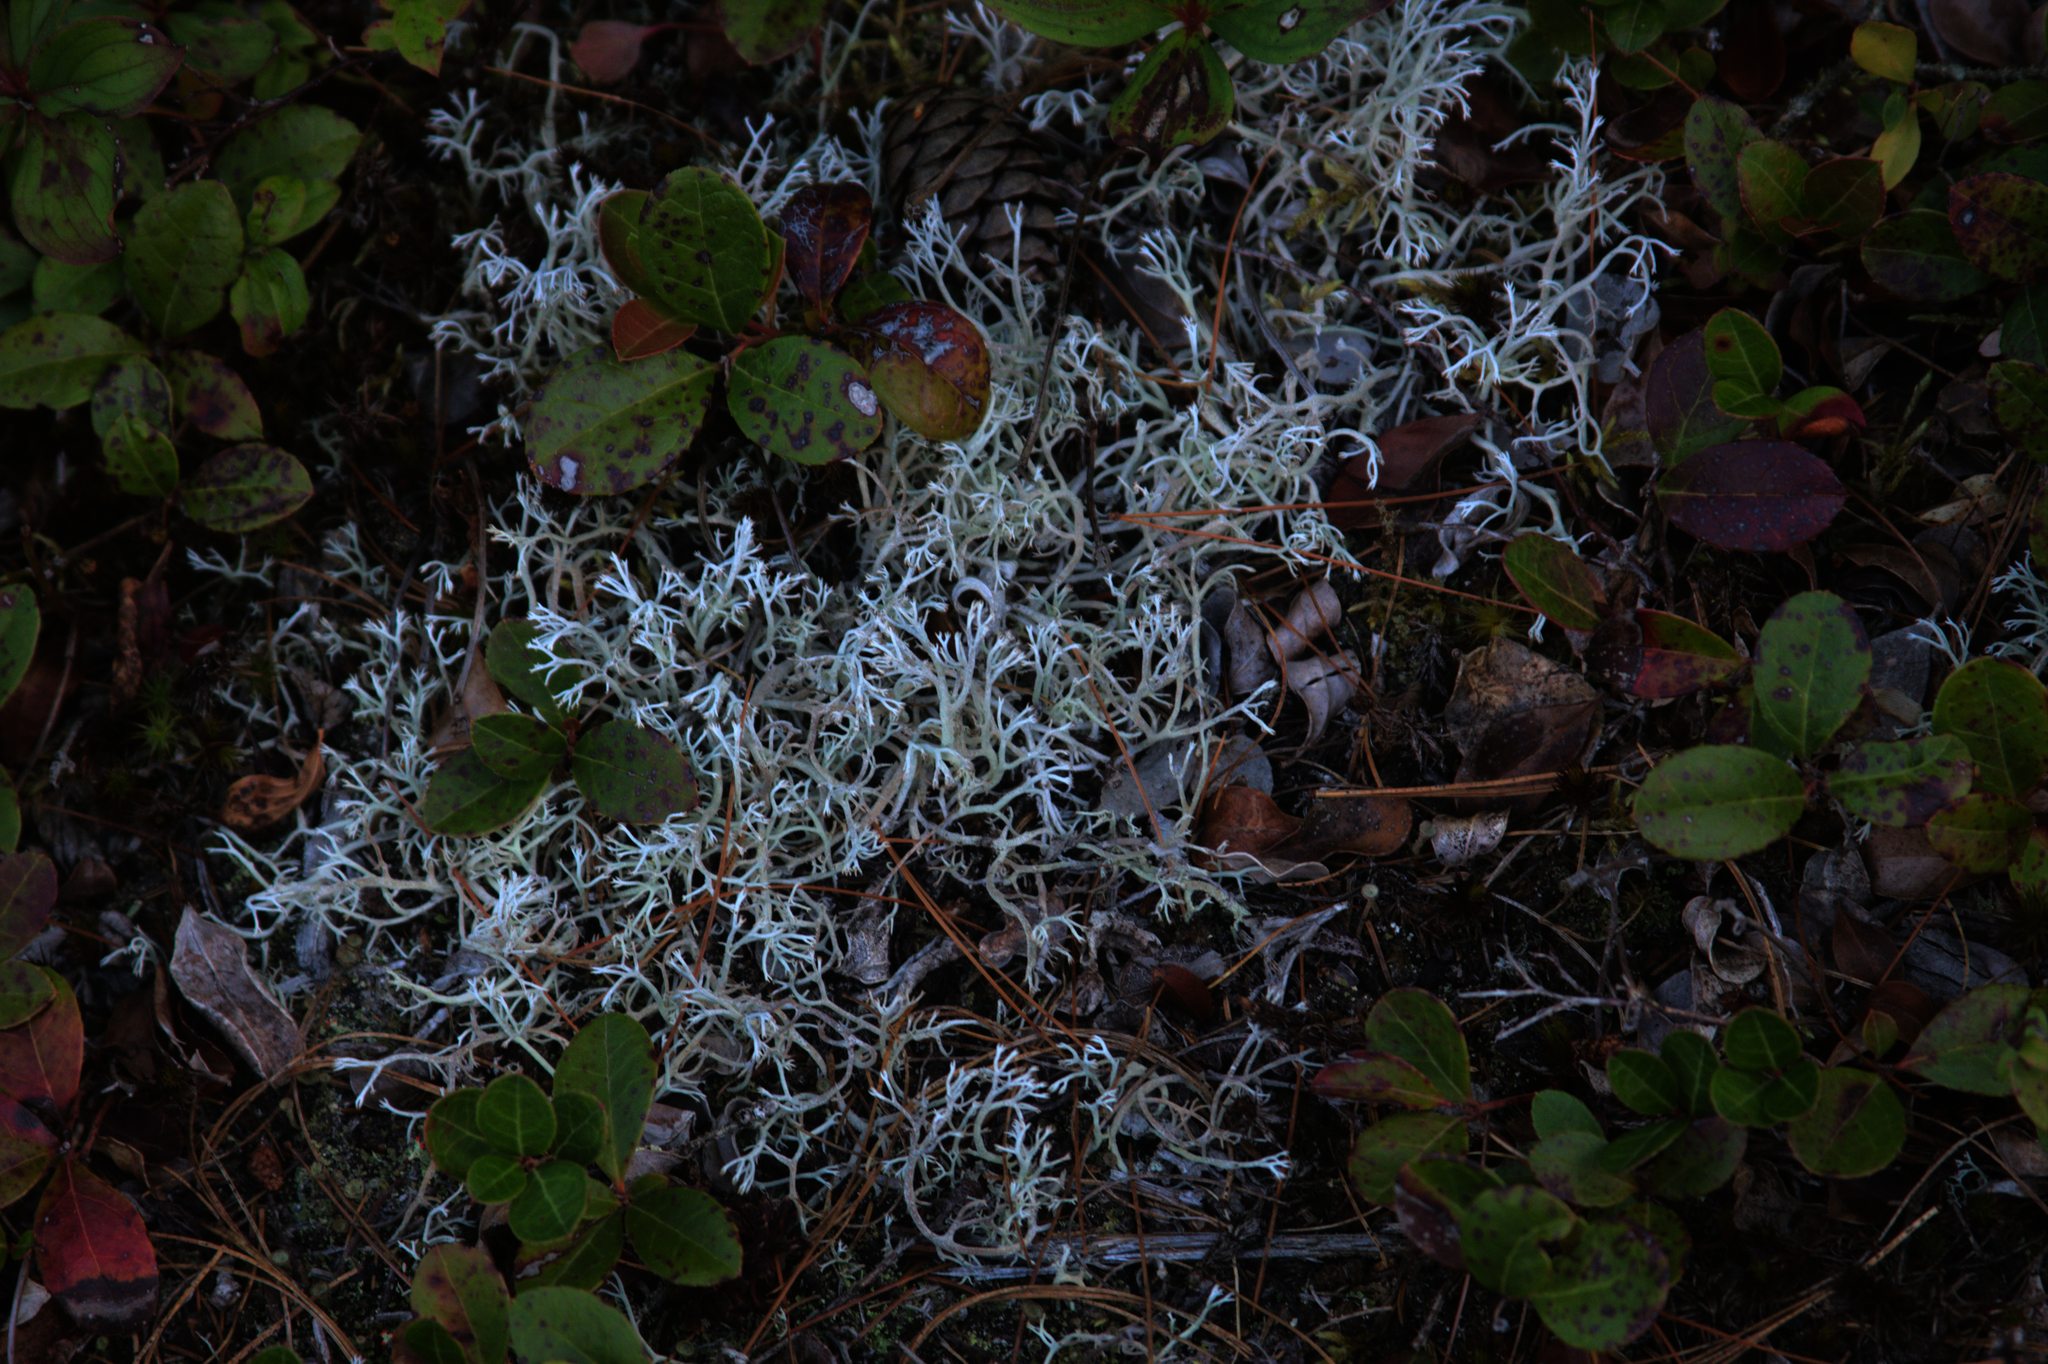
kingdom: Plantae
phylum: Tracheophyta
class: Magnoliopsida
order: Ericales
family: Ericaceae
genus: Gaultheria
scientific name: Gaultheria procumbens
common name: Checkerberry
